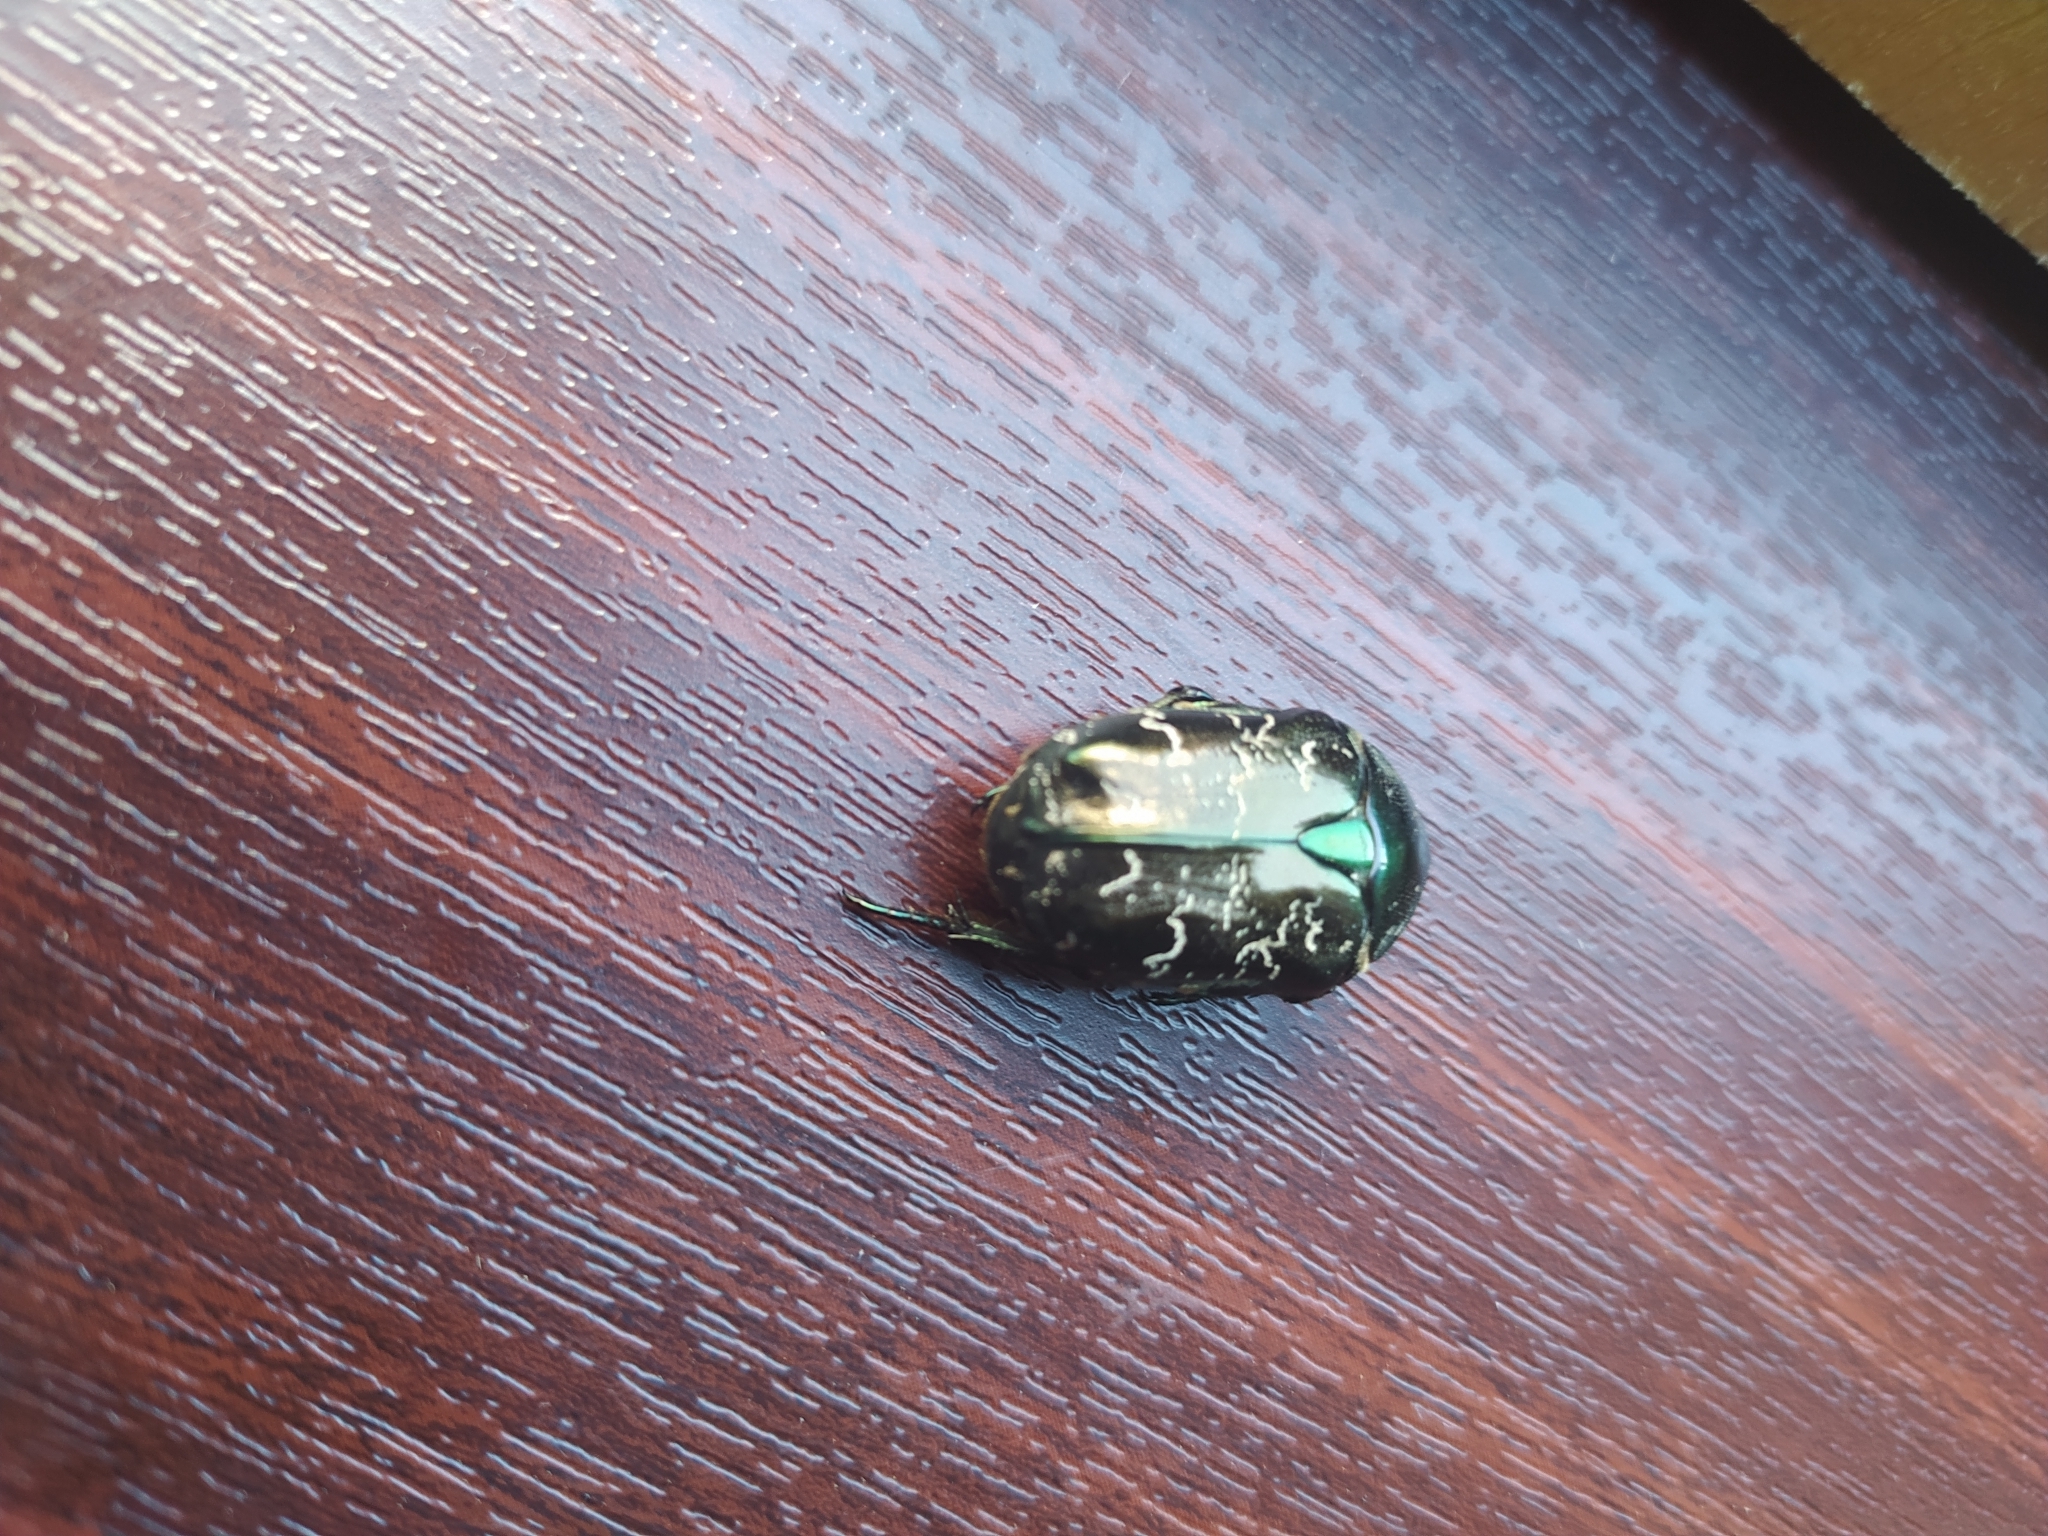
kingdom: Animalia
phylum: Arthropoda
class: Insecta
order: Coleoptera
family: Scarabaeidae
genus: Protaetia
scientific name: Protaetia marmorata
